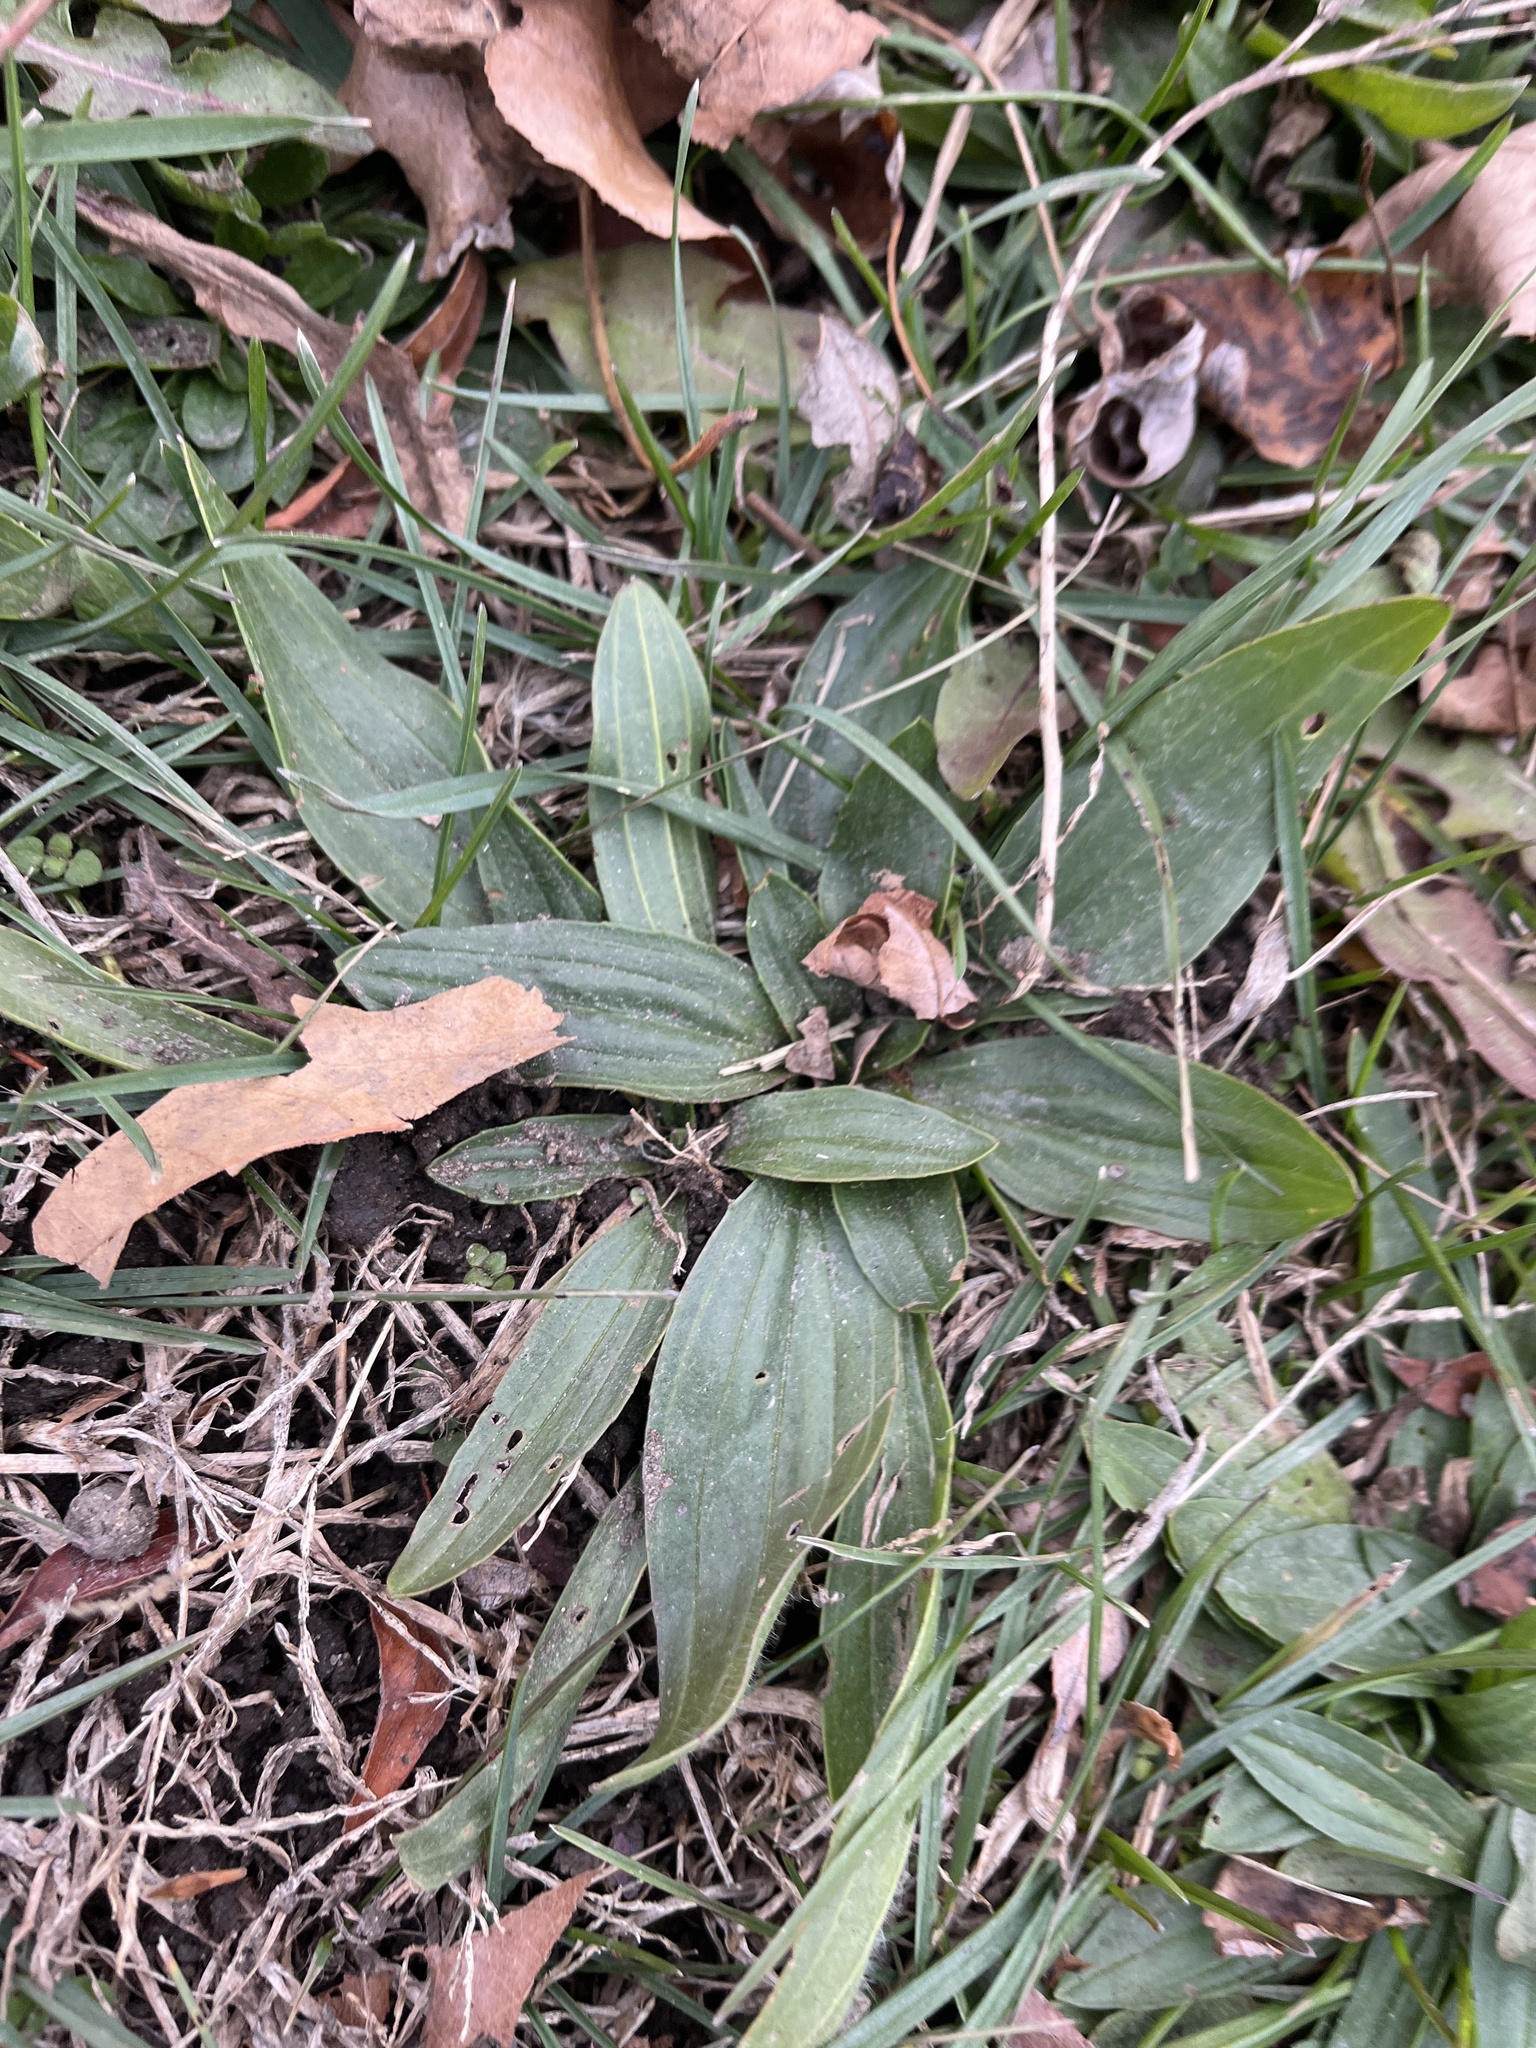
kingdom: Plantae
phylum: Tracheophyta
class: Magnoliopsida
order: Lamiales
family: Plantaginaceae
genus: Plantago
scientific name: Plantago lanceolata
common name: Ribwort plantain
